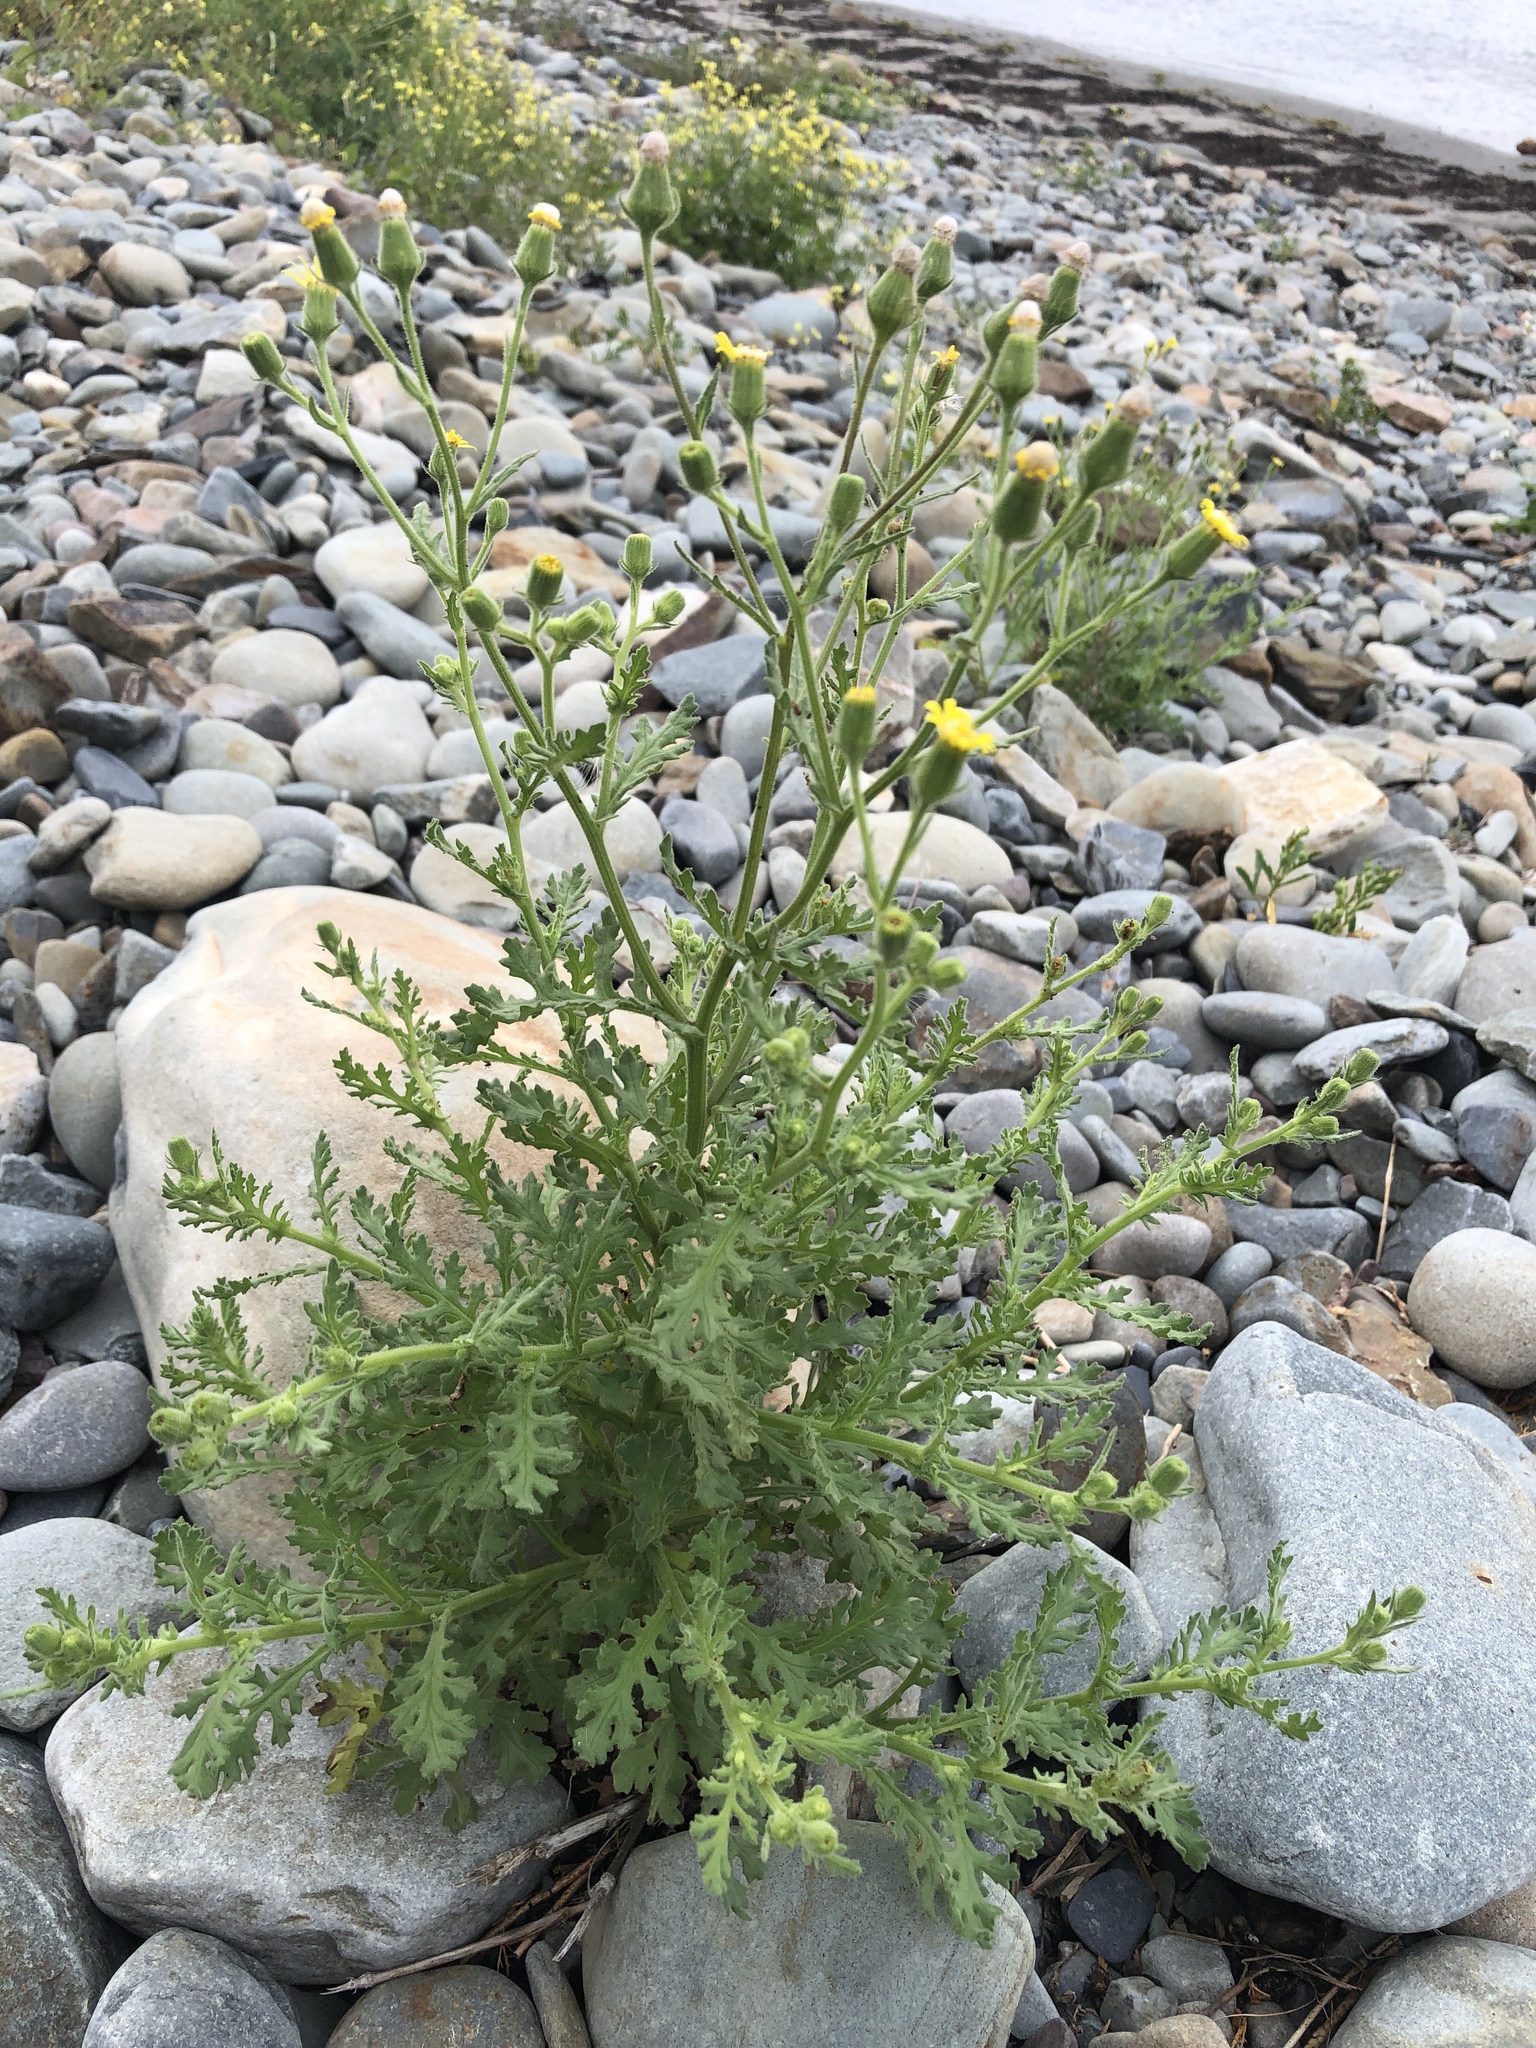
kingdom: Plantae
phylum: Tracheophyta
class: Magnoliopsida
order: Asterales
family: Asteraceae
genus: Senecio
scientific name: Senecio viscosus
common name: Sticky groundsel
